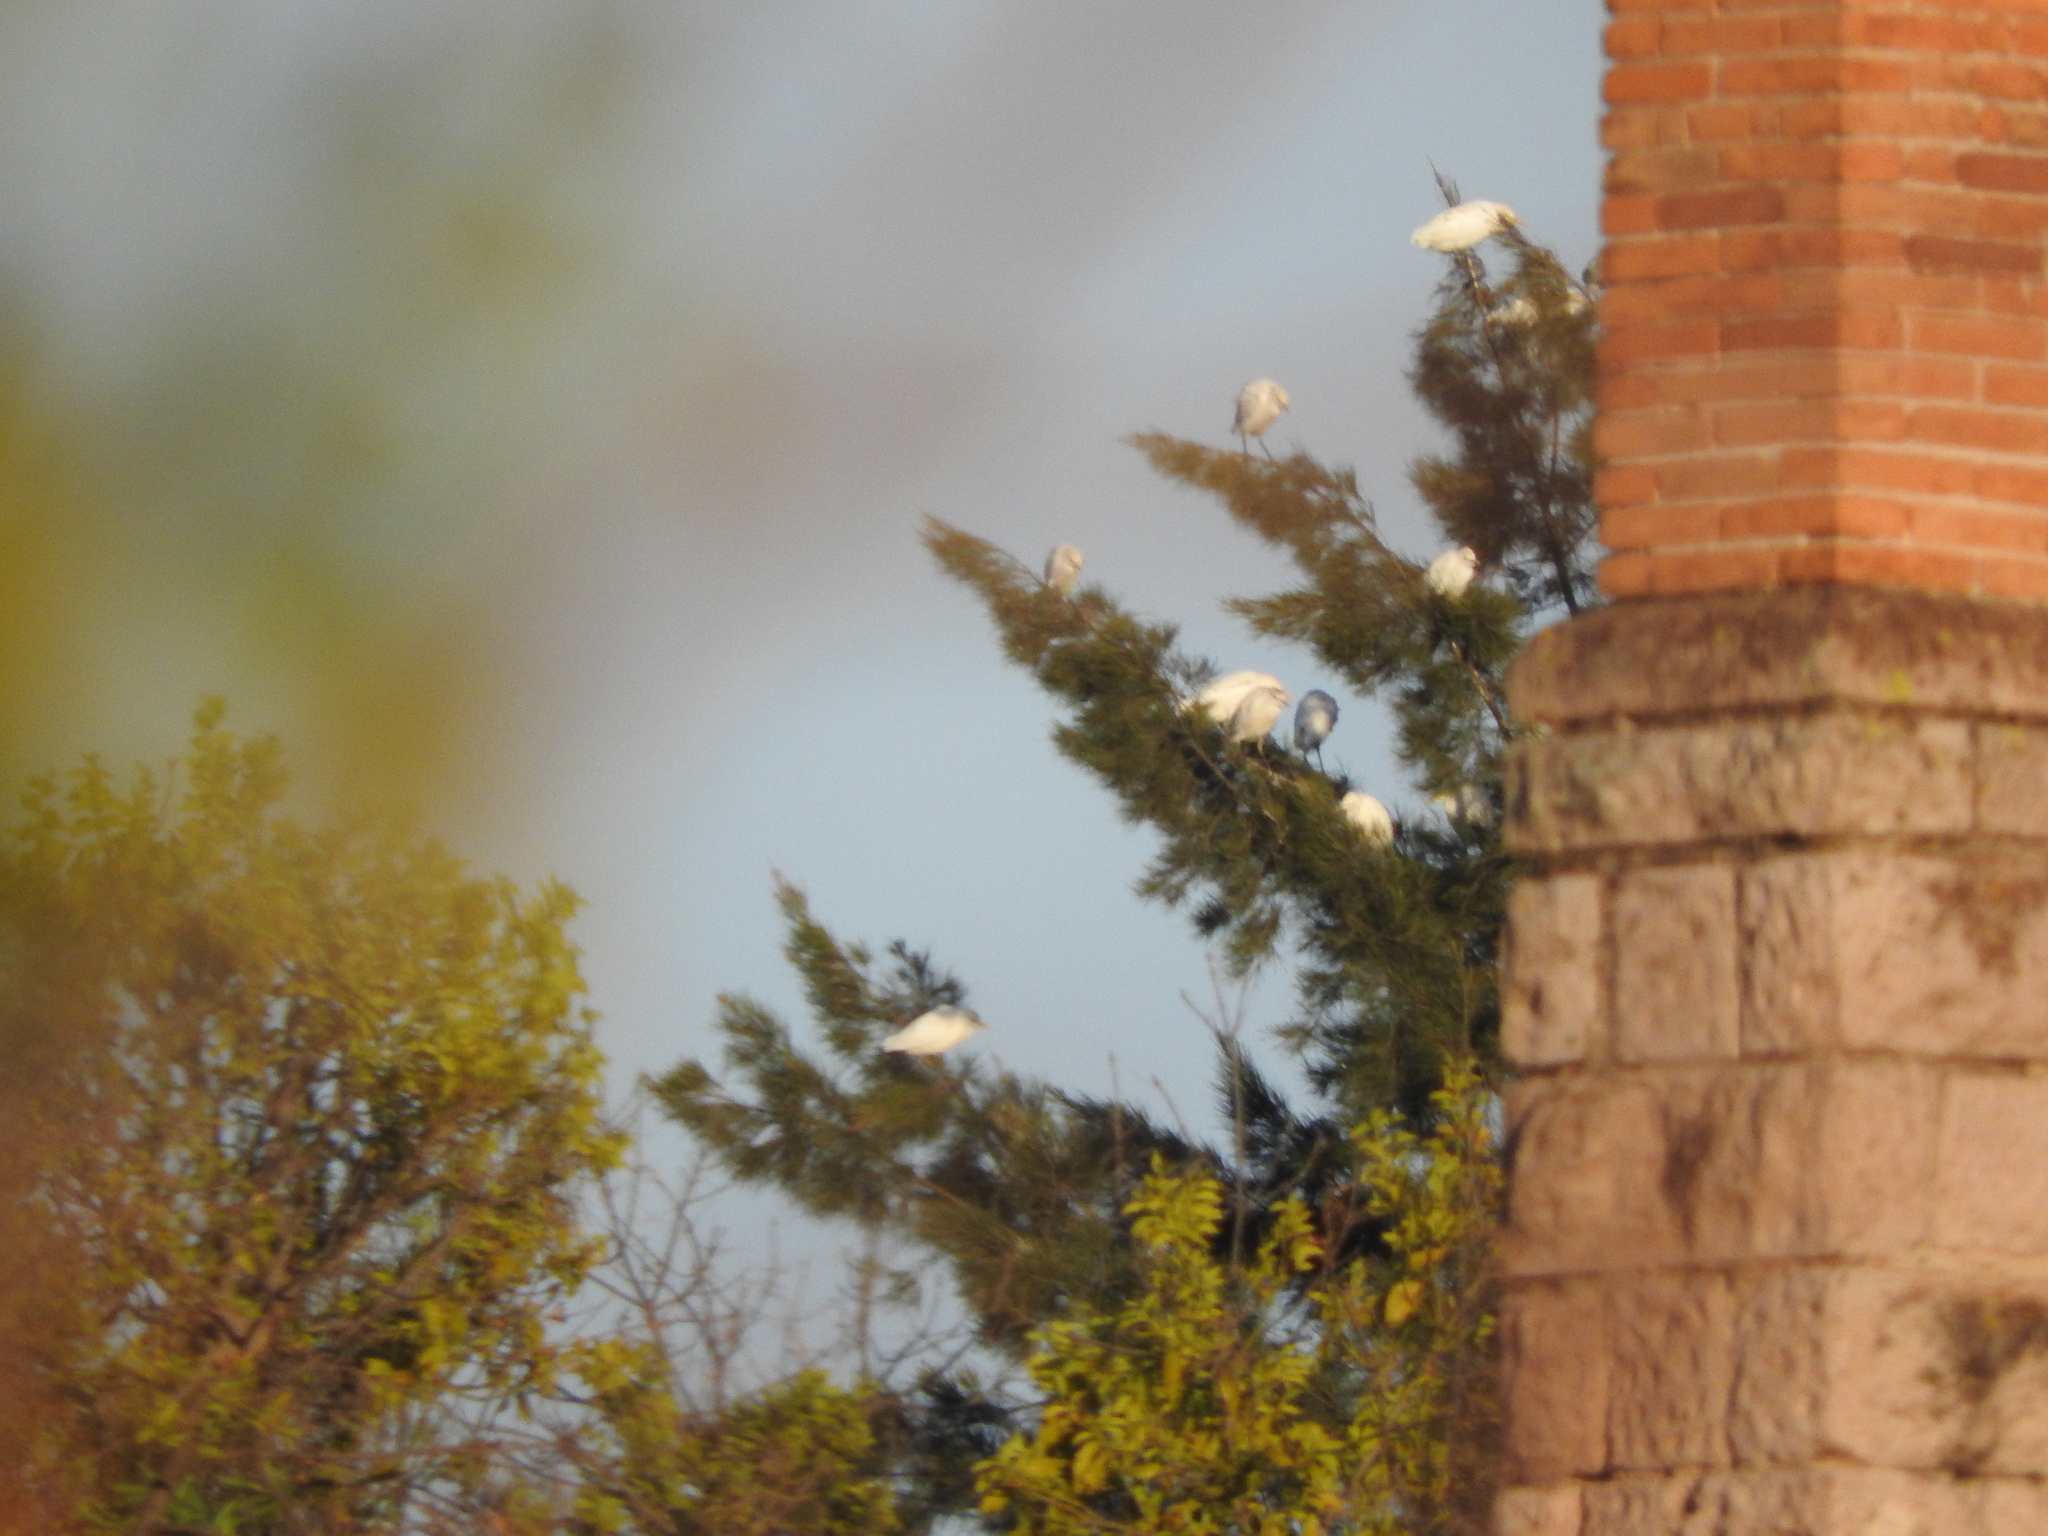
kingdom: Animalia
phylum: Chordata
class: Aves
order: Pelecaniformes
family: Ardeidae
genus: Bubulcus
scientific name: Bubulcus ibis
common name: Cattle egret
